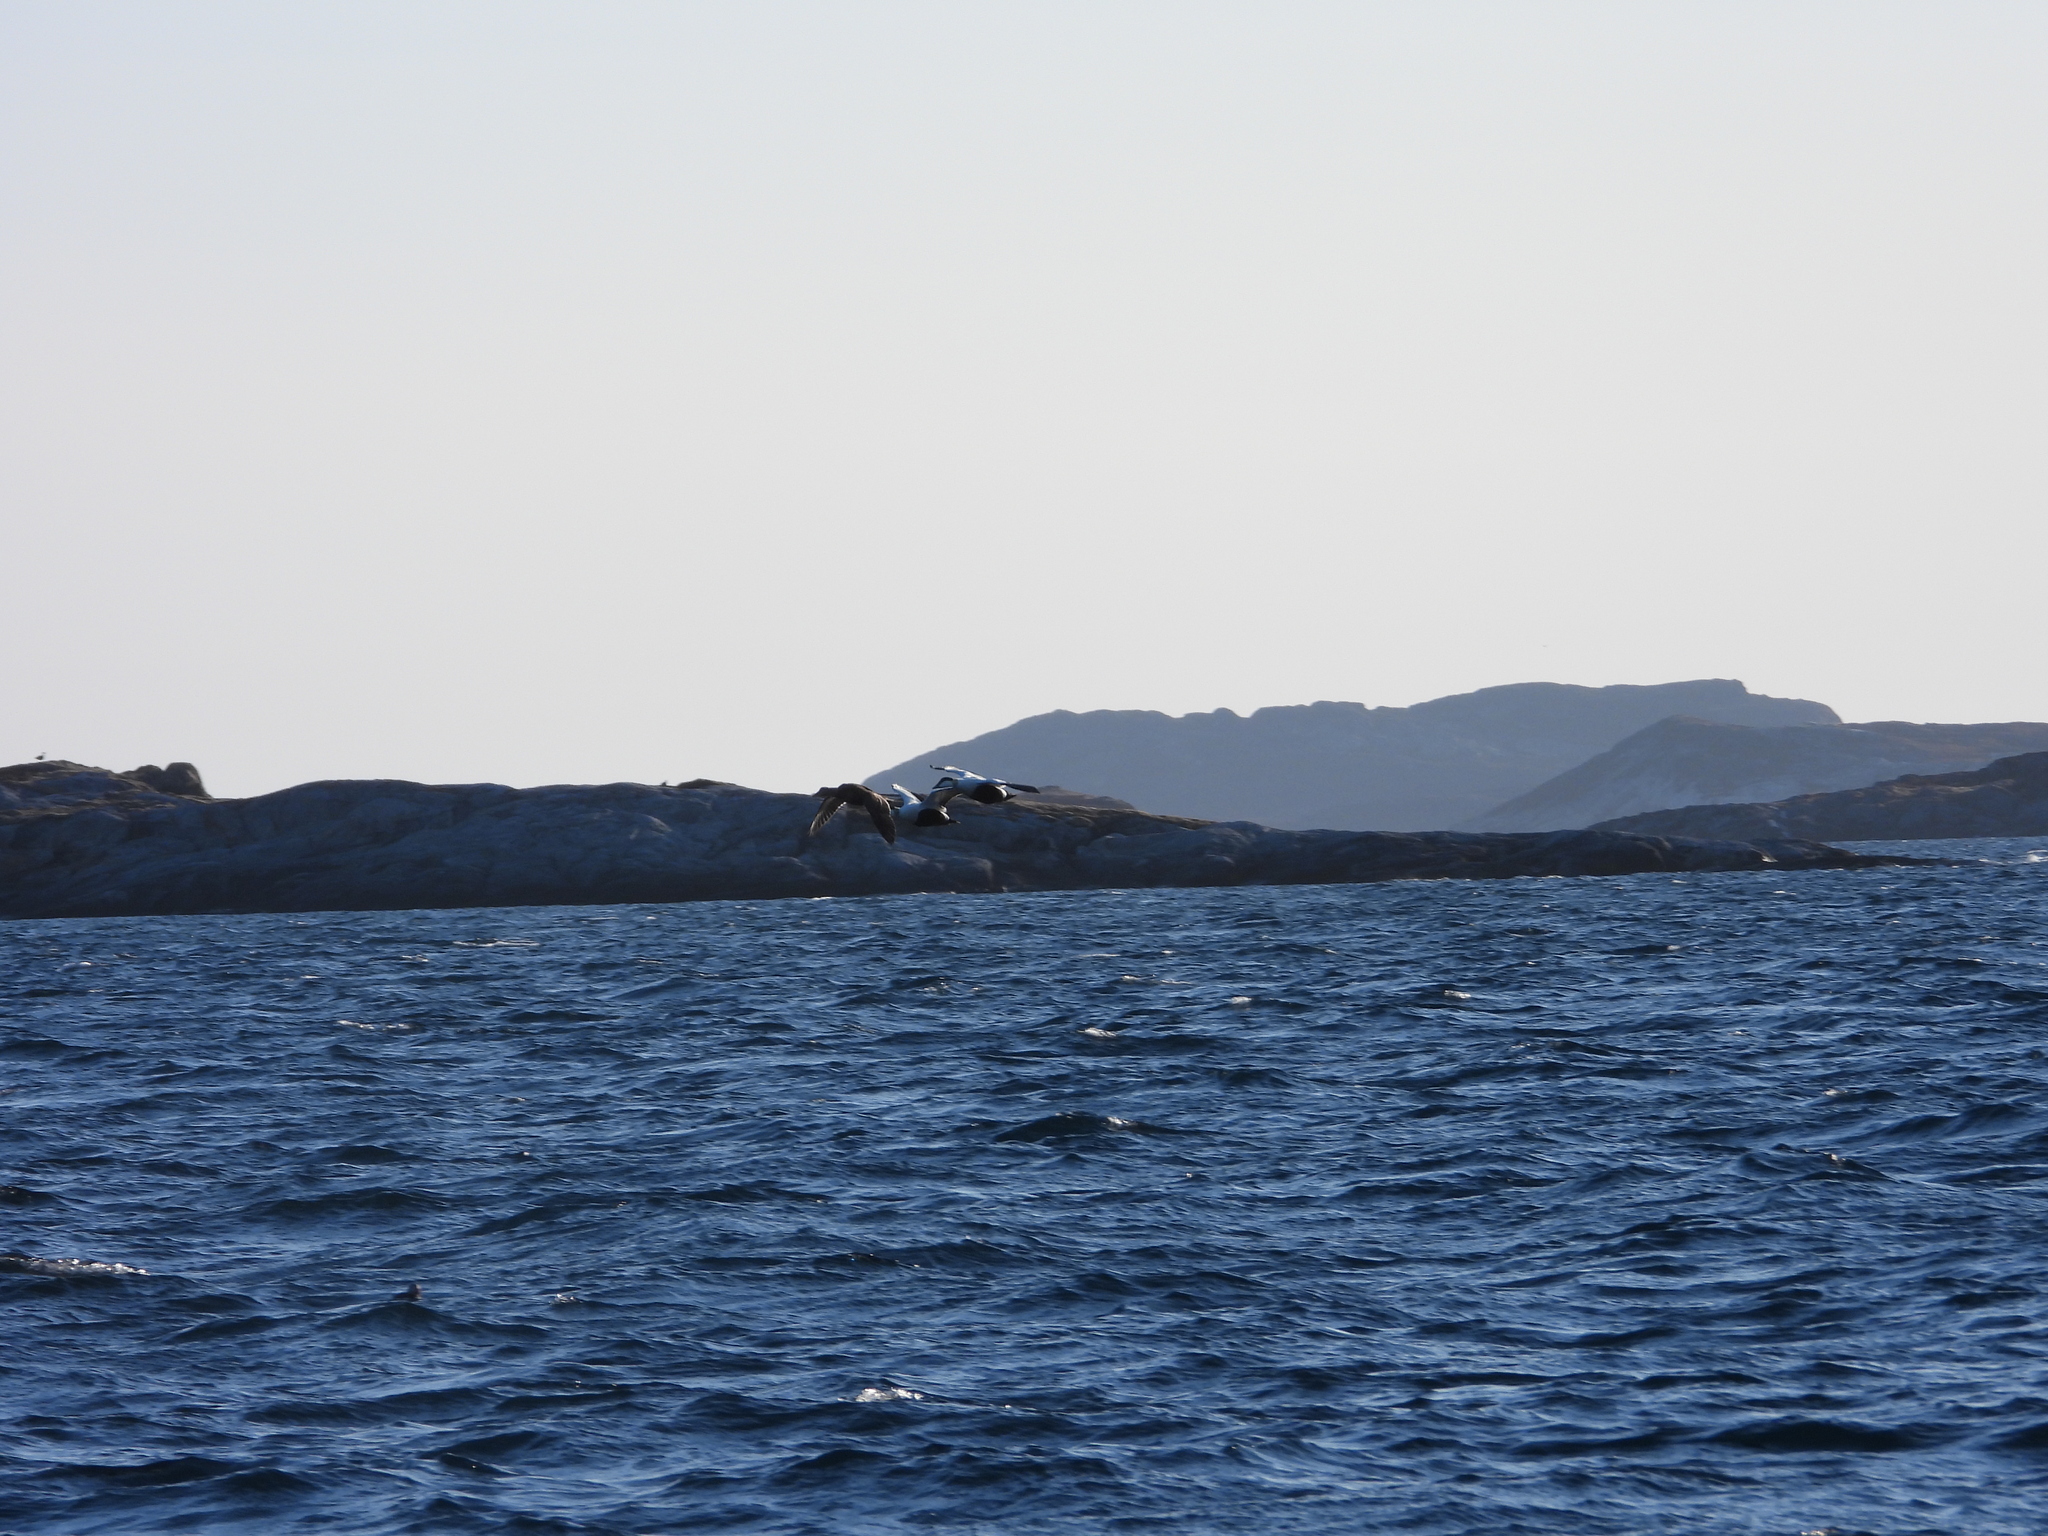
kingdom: Animalia
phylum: Chordata
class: Aves
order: Anseriformes
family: Anatidae
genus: Somateria
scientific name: Somateria mollissima
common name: Common eider
